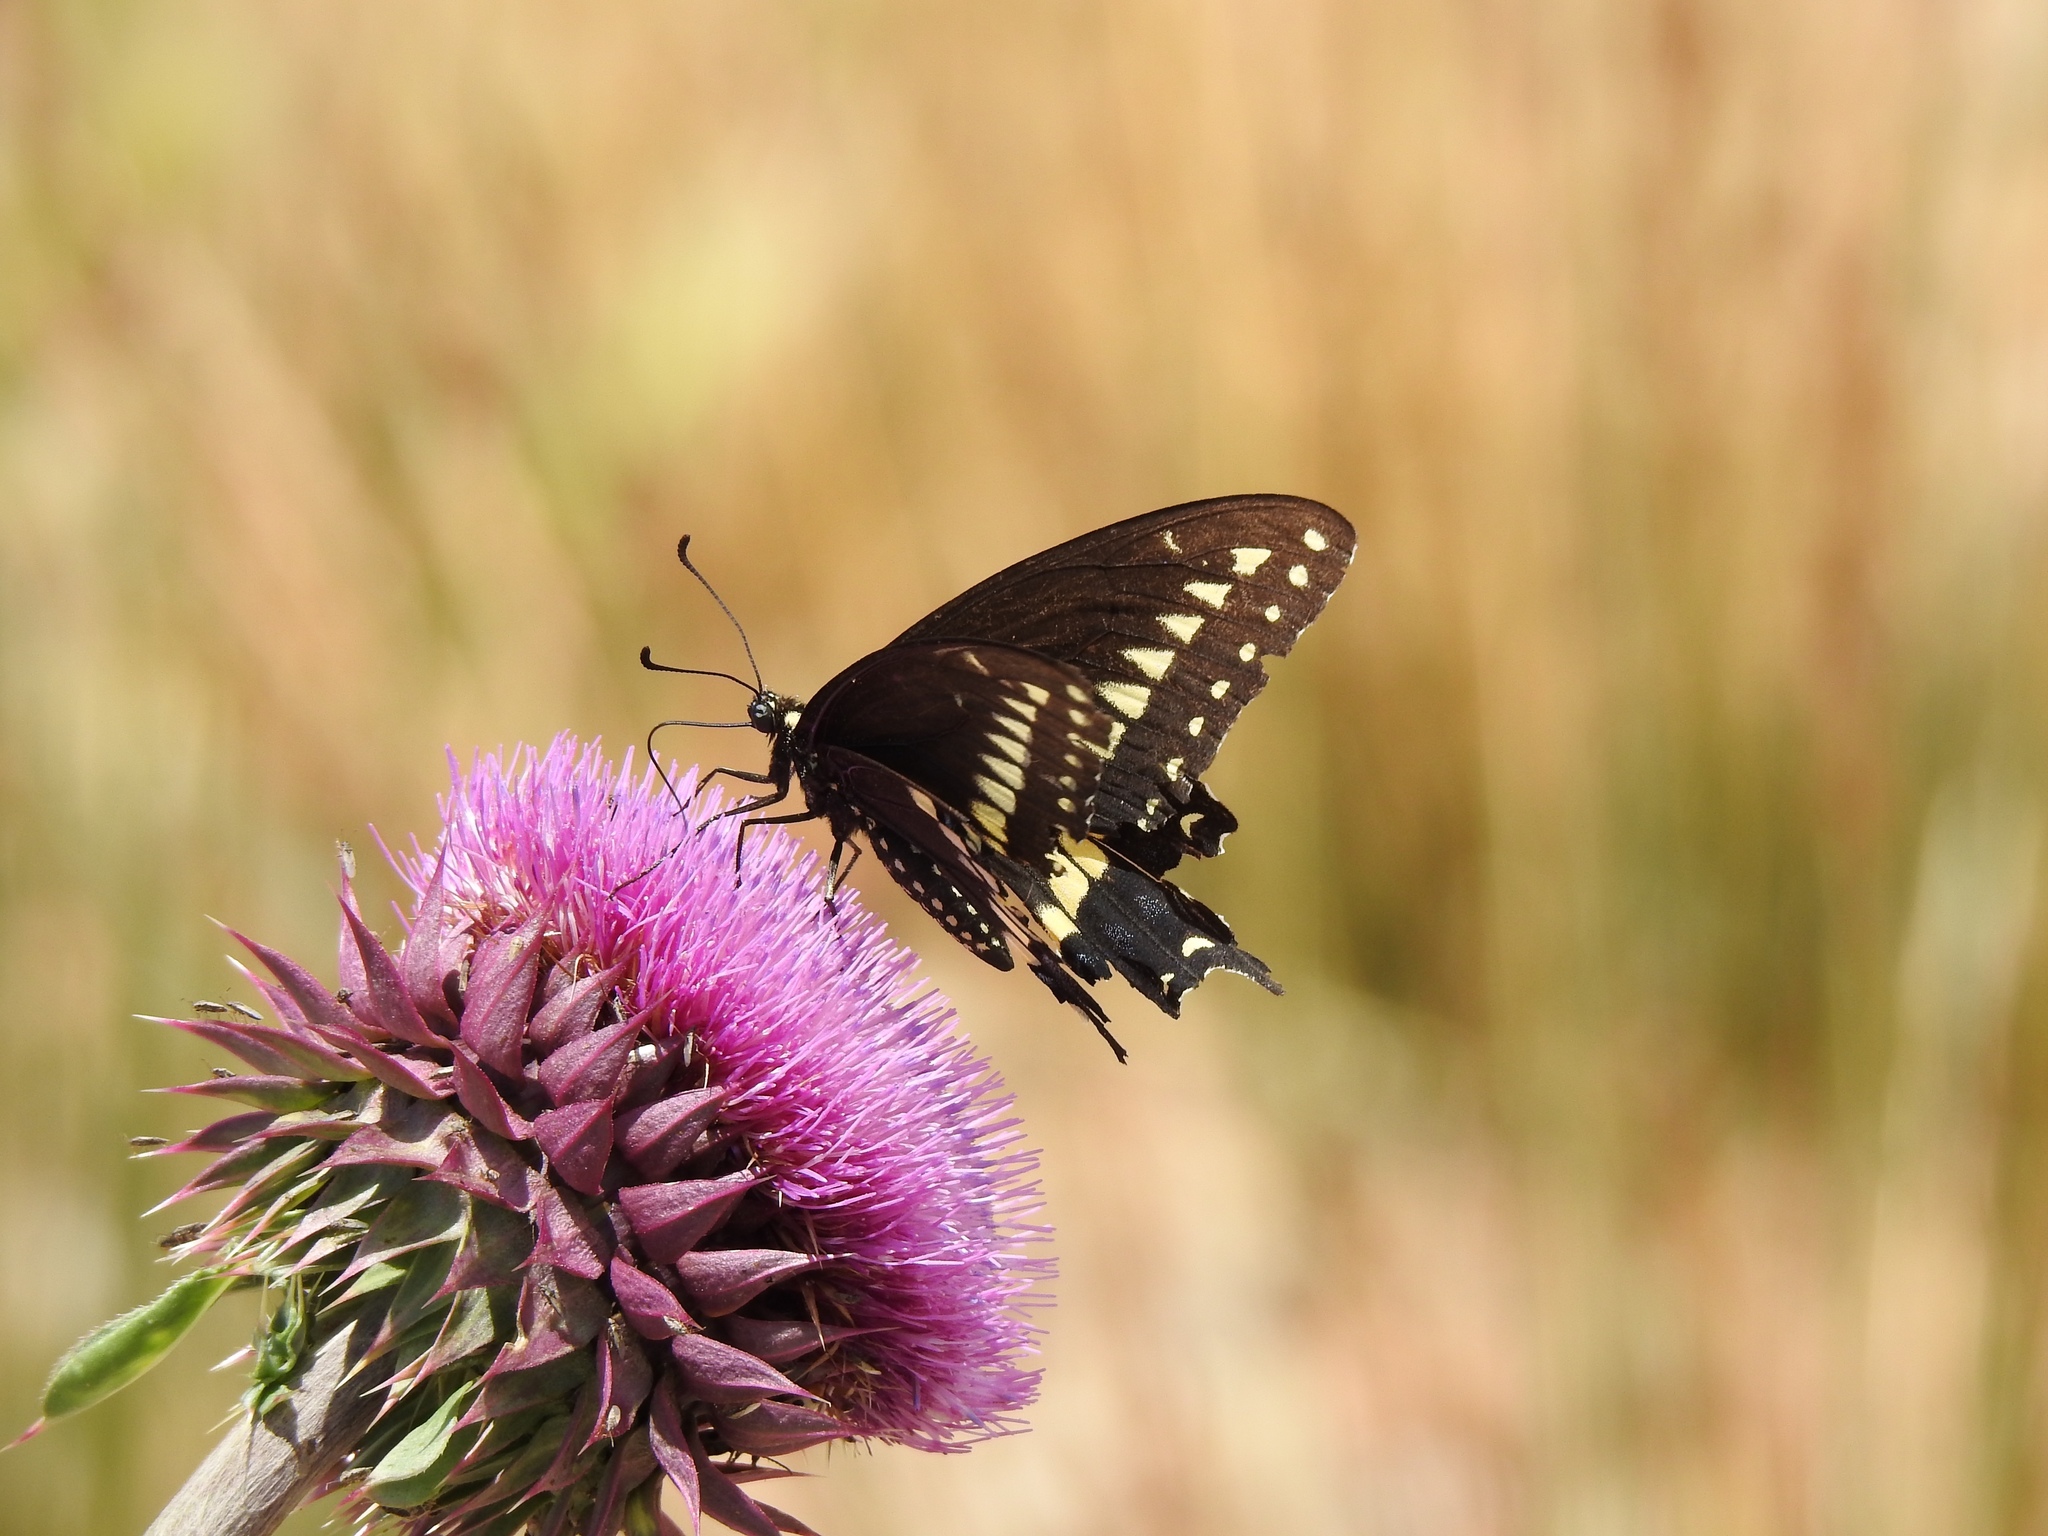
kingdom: Animalia
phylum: Arthropoda
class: Insecta
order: Lepidoptera
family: Papilionidae
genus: Papilio
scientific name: Papilio polyxenes
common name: Black swallowtail
